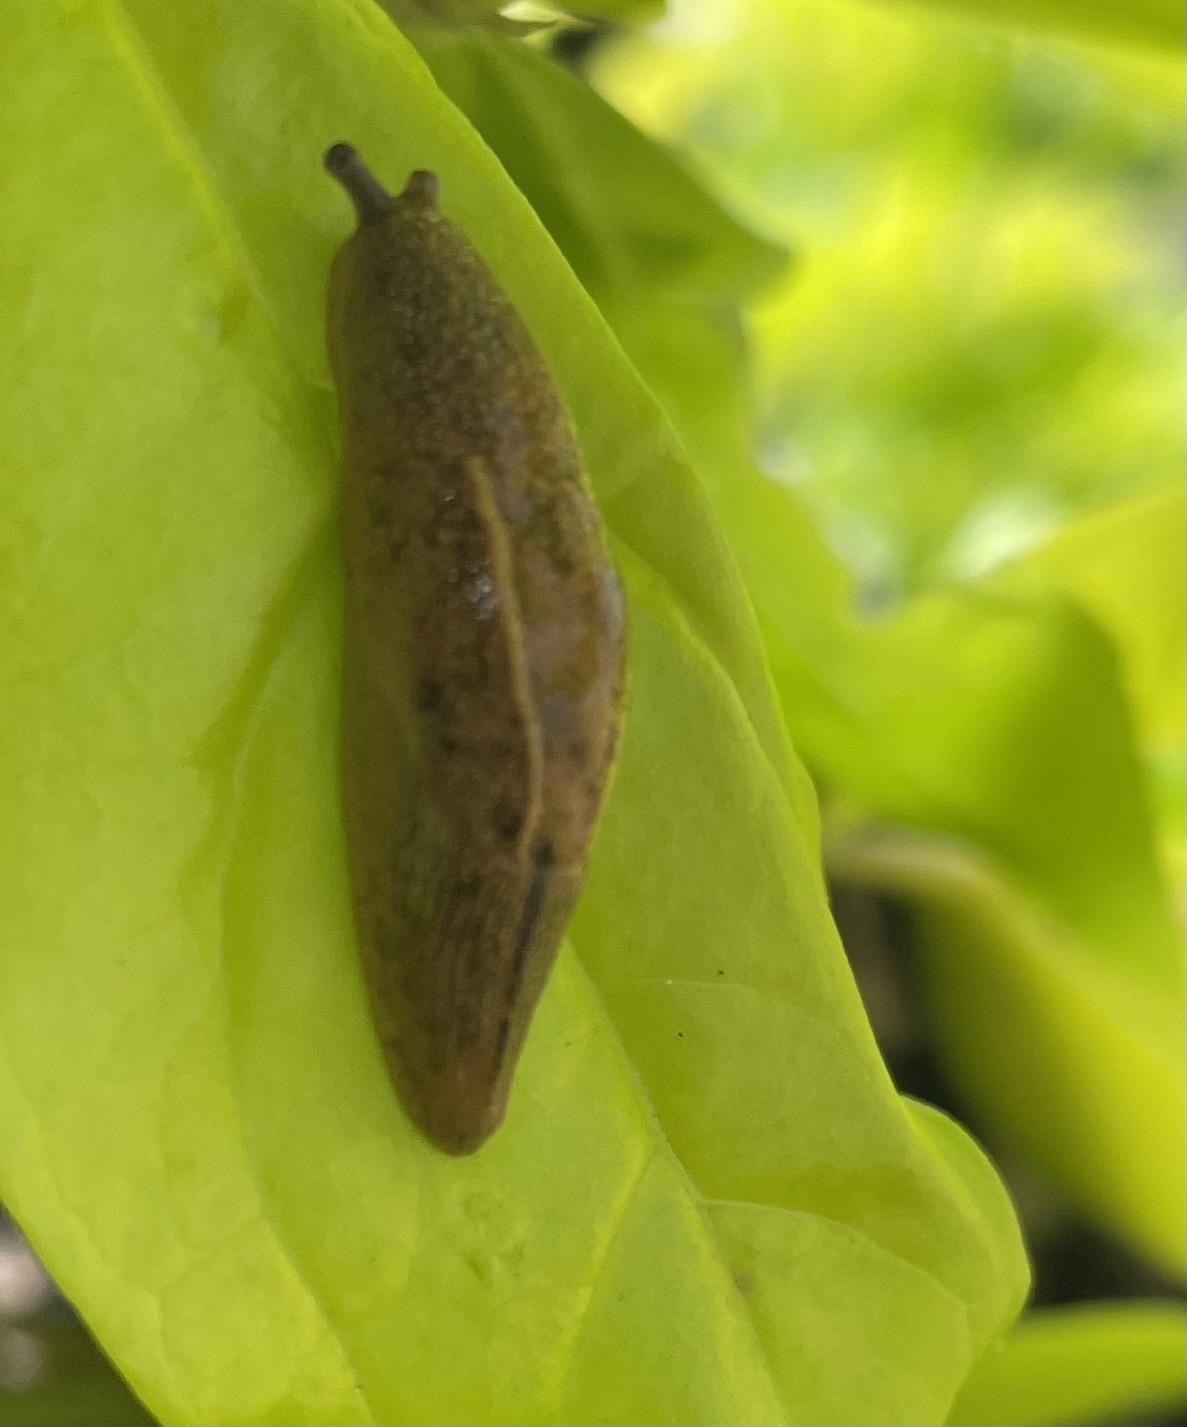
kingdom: Animalia
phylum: Mollusca
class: Gastropoda
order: Stylommatophora
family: Ariophantidae
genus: Mariaella
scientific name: Mariaella dussumieri
